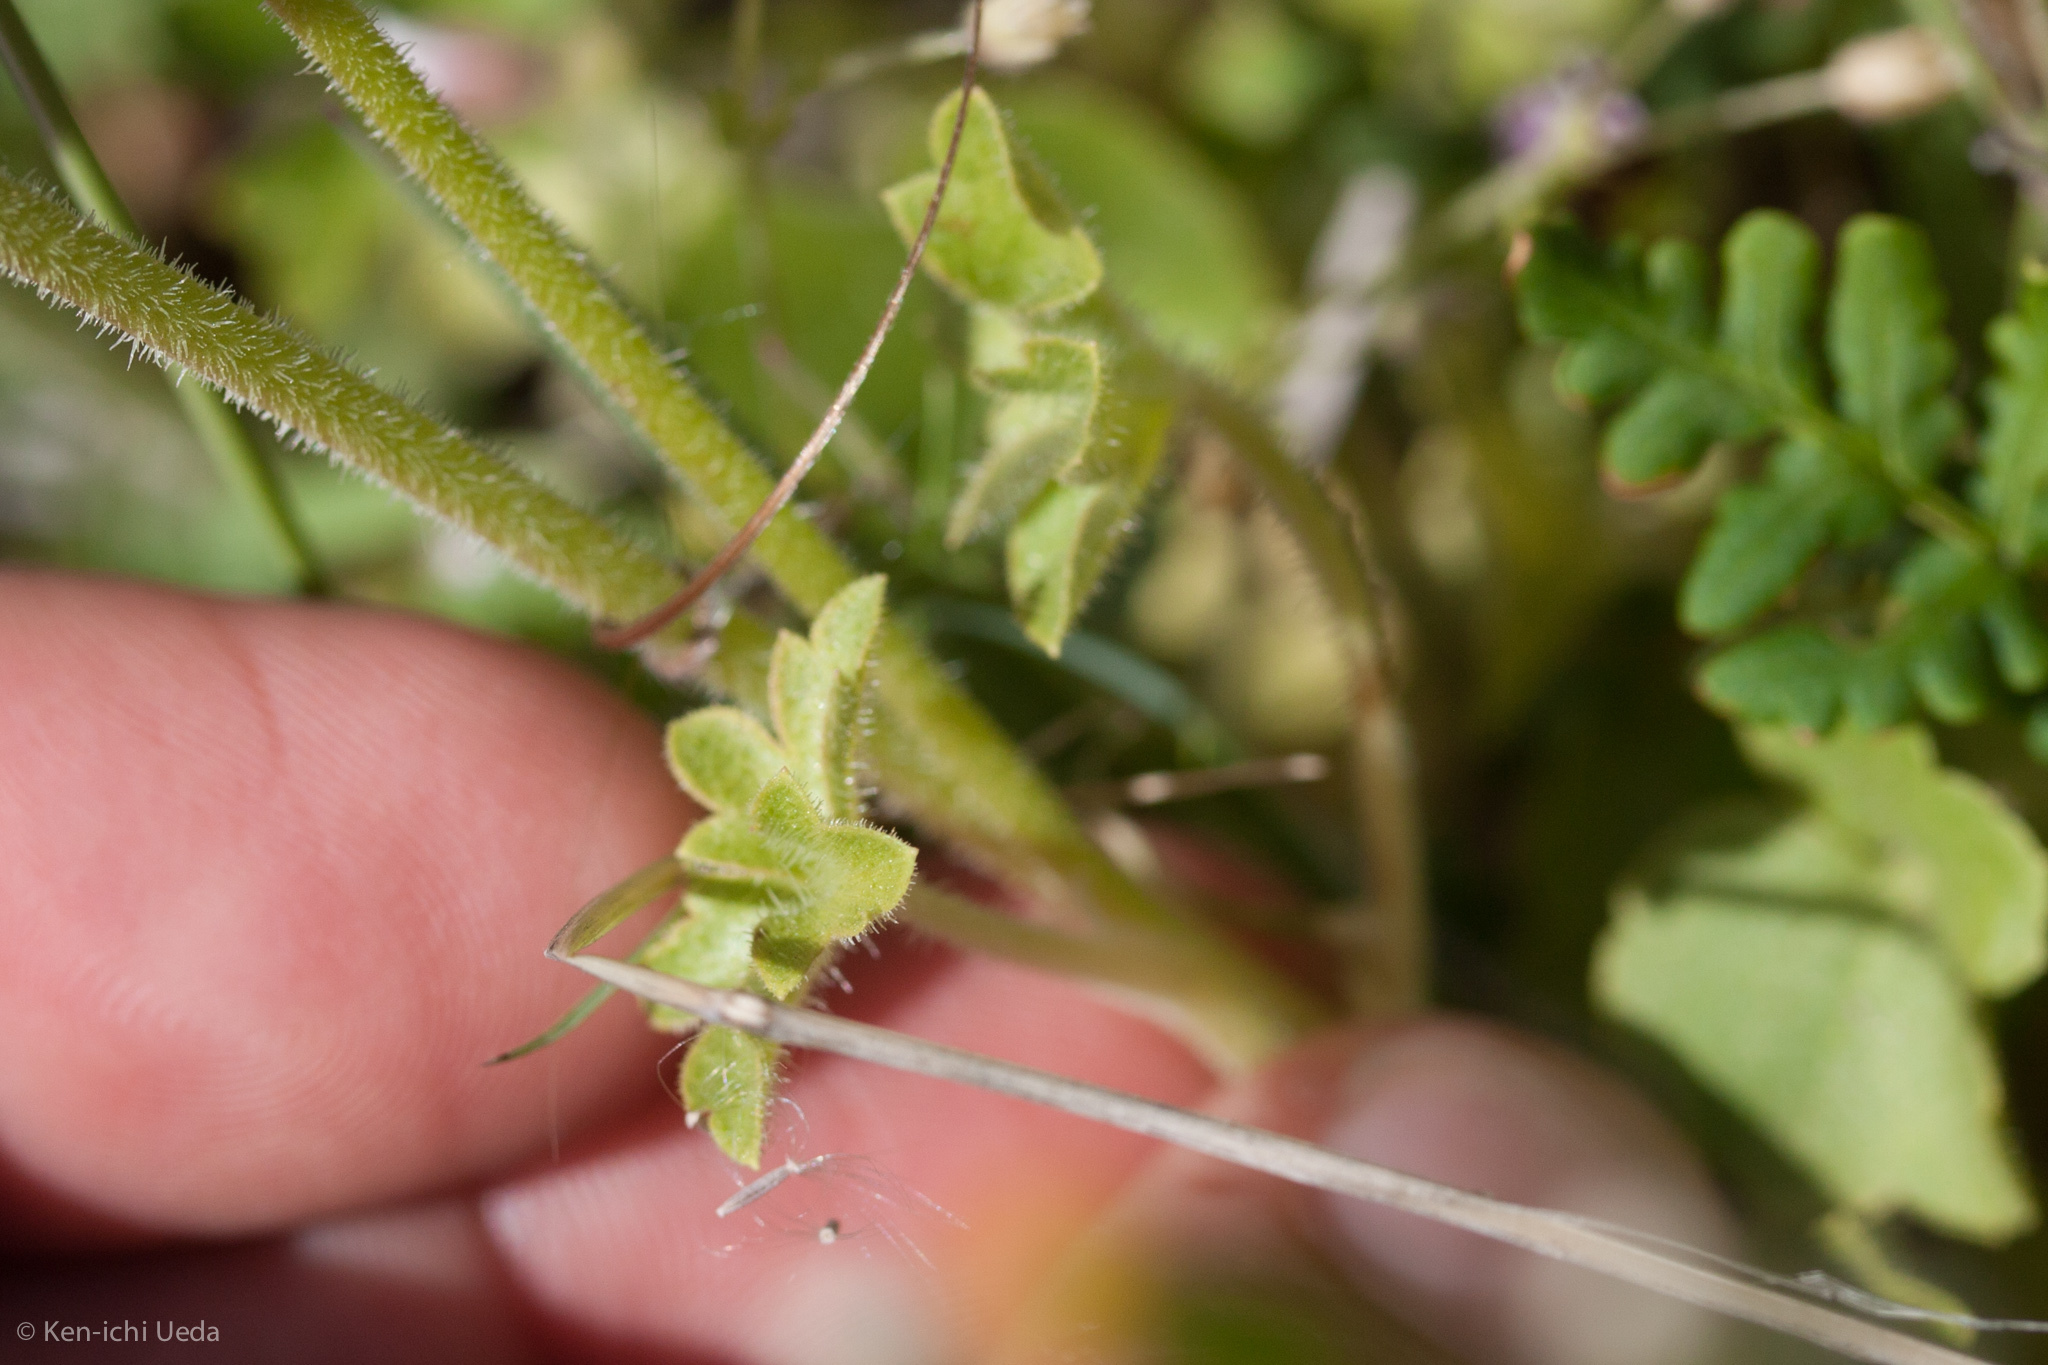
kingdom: Plantae
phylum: Tracheophyta
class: Magnoliopsida
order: Saxifragales
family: Saxifragaceae
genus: Lithophragma
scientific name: Lithophragma affine
